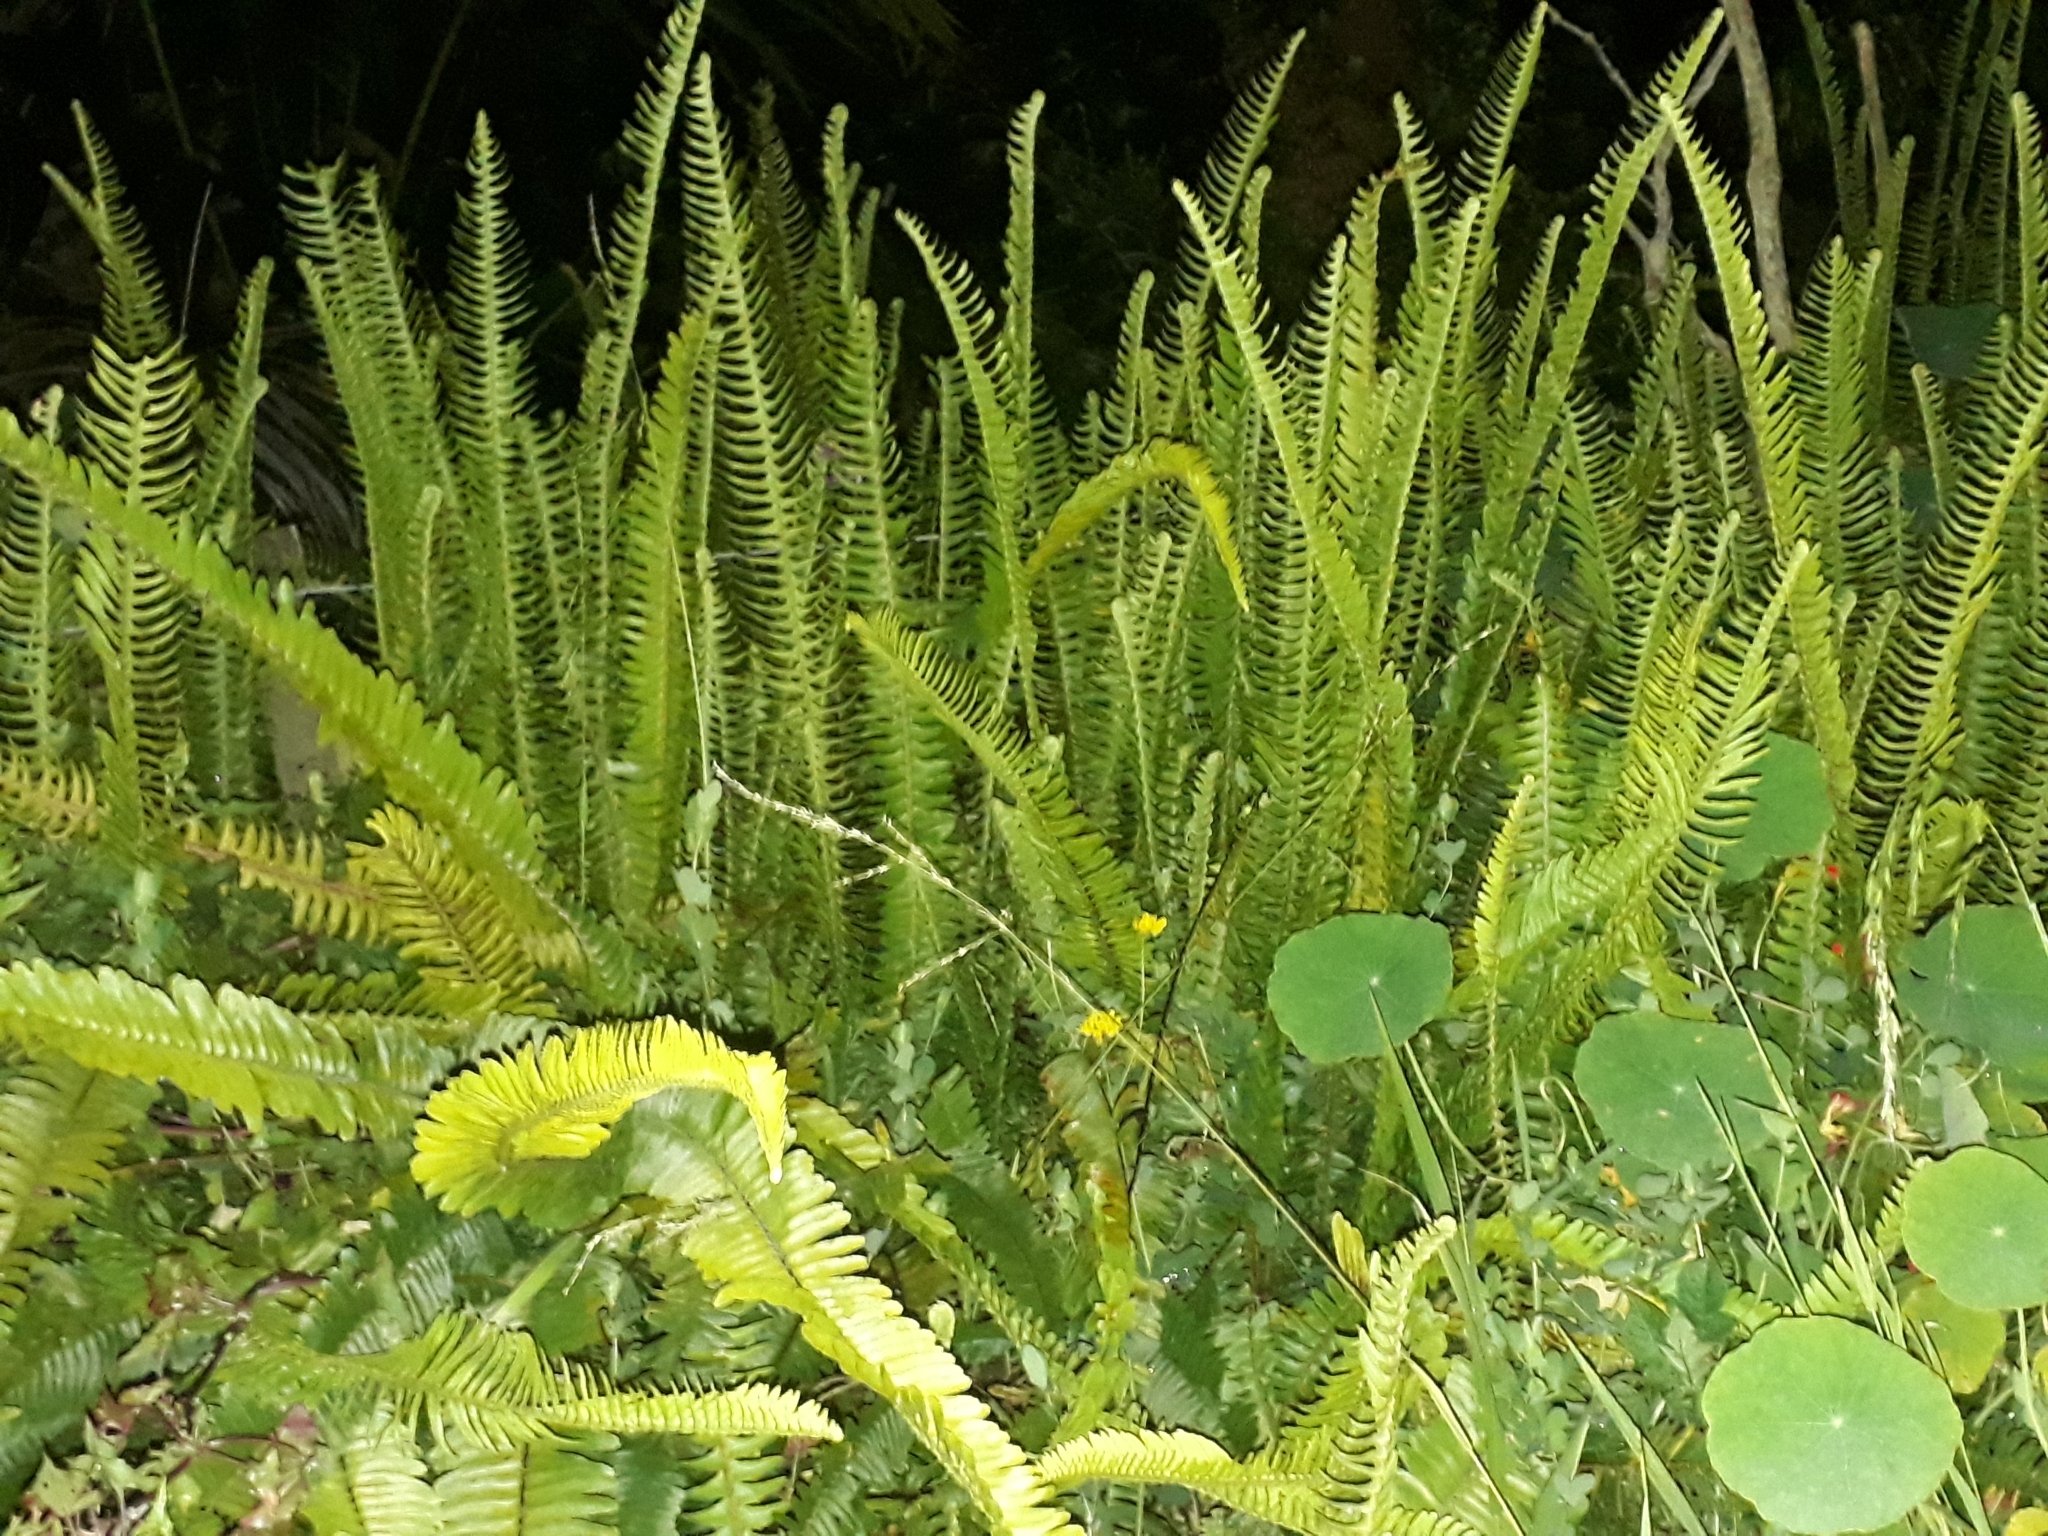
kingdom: Plantae
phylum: Tracheophyta
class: Polypodiopsida
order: Polypodiales
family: Nephrolepidaceae
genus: Nephrolepis
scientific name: Nephrolepis cordifolia
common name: Narrow swordfern
